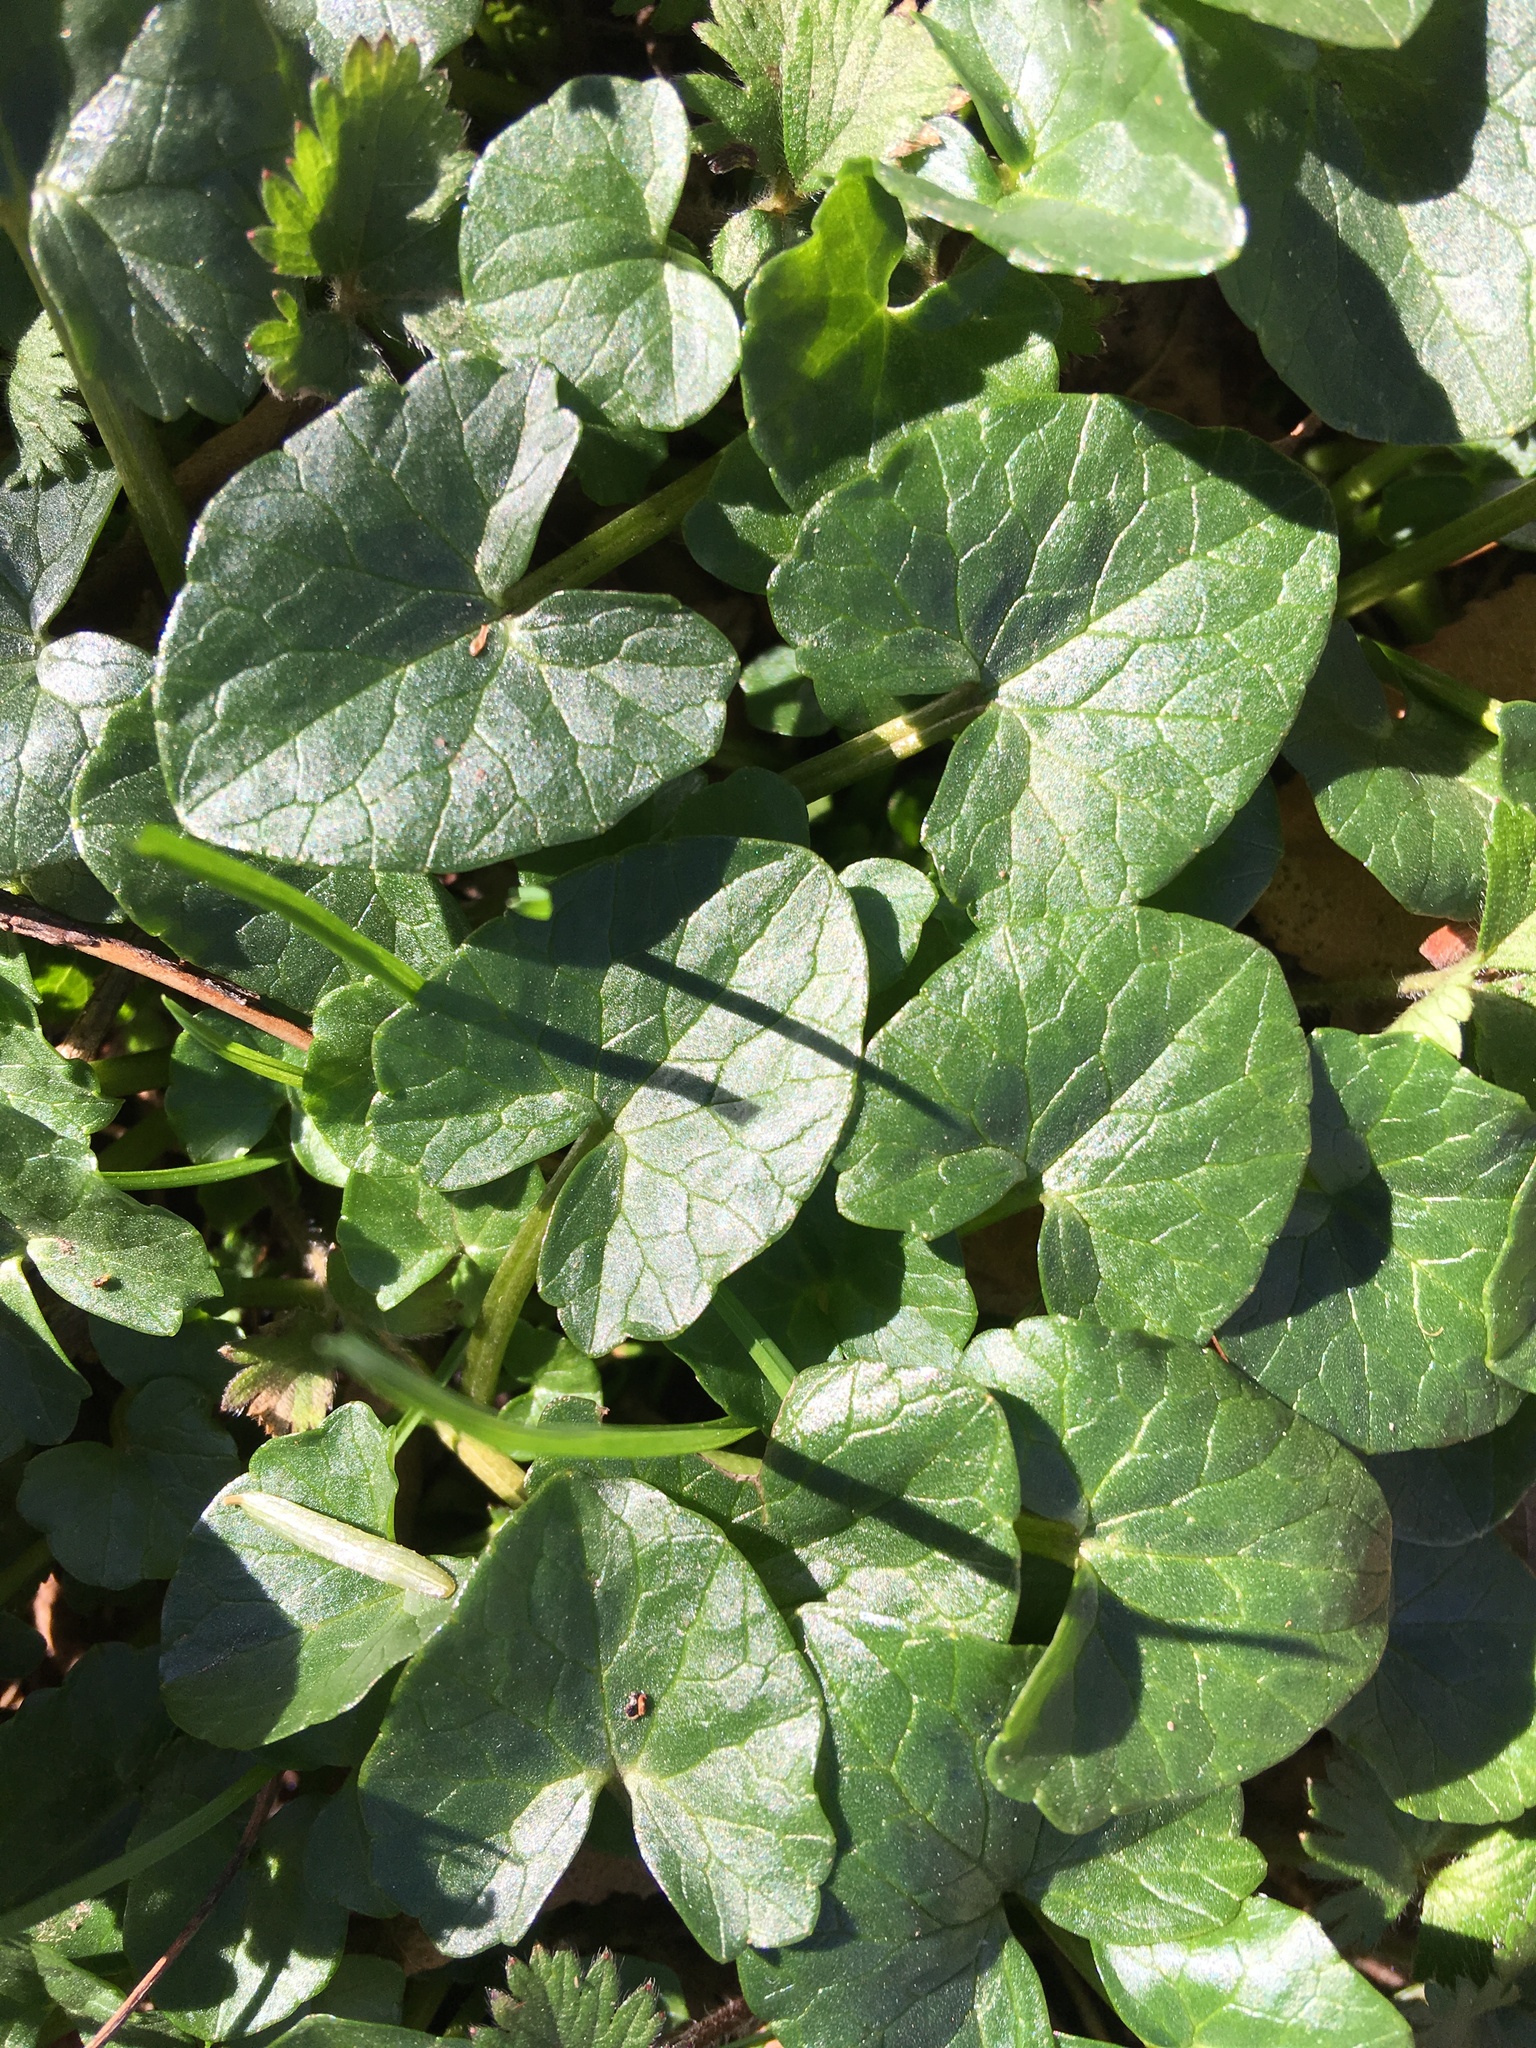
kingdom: Plantae
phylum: Tracheophyta
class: Magnoliopsida
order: Ranunculales
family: Ranunculaceae
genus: Ficaria
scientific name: Ficaria verna
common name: Lesser celandine
